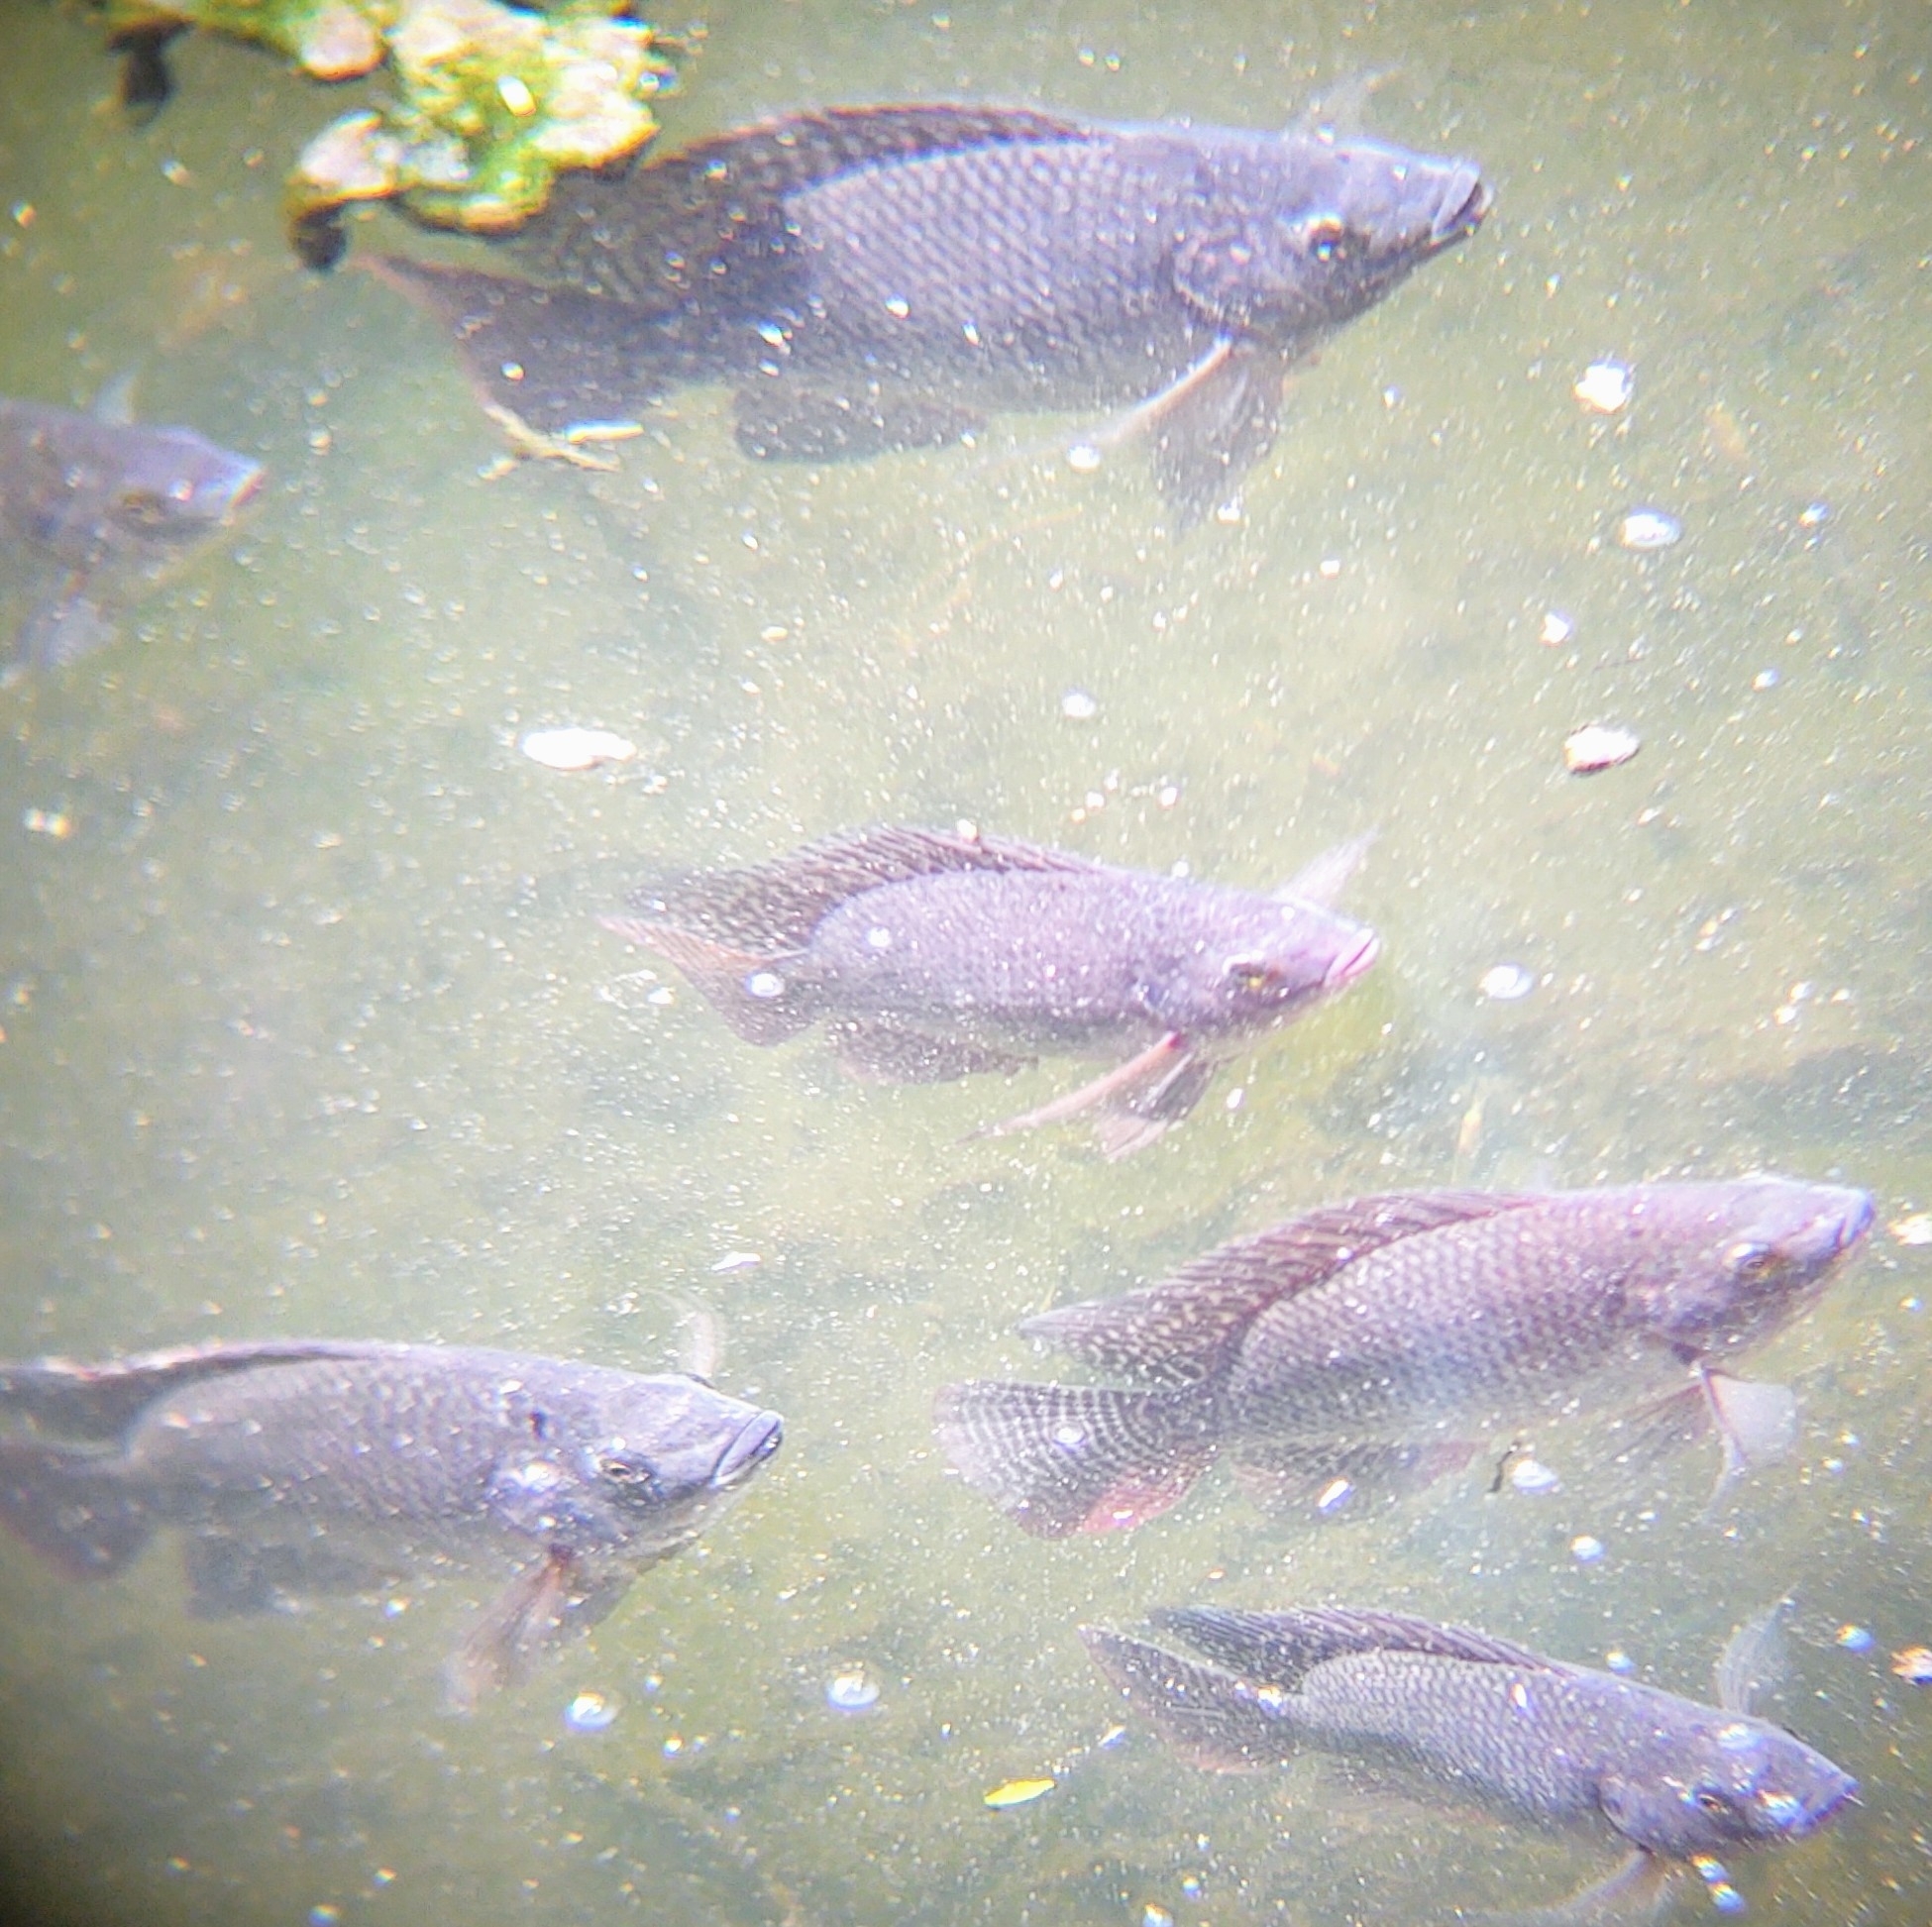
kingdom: Animalia
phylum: Chordata
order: Perciformes
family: Cichlidae
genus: Oreochromis
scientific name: Oreochromis niloticus
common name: Nile tilapia
